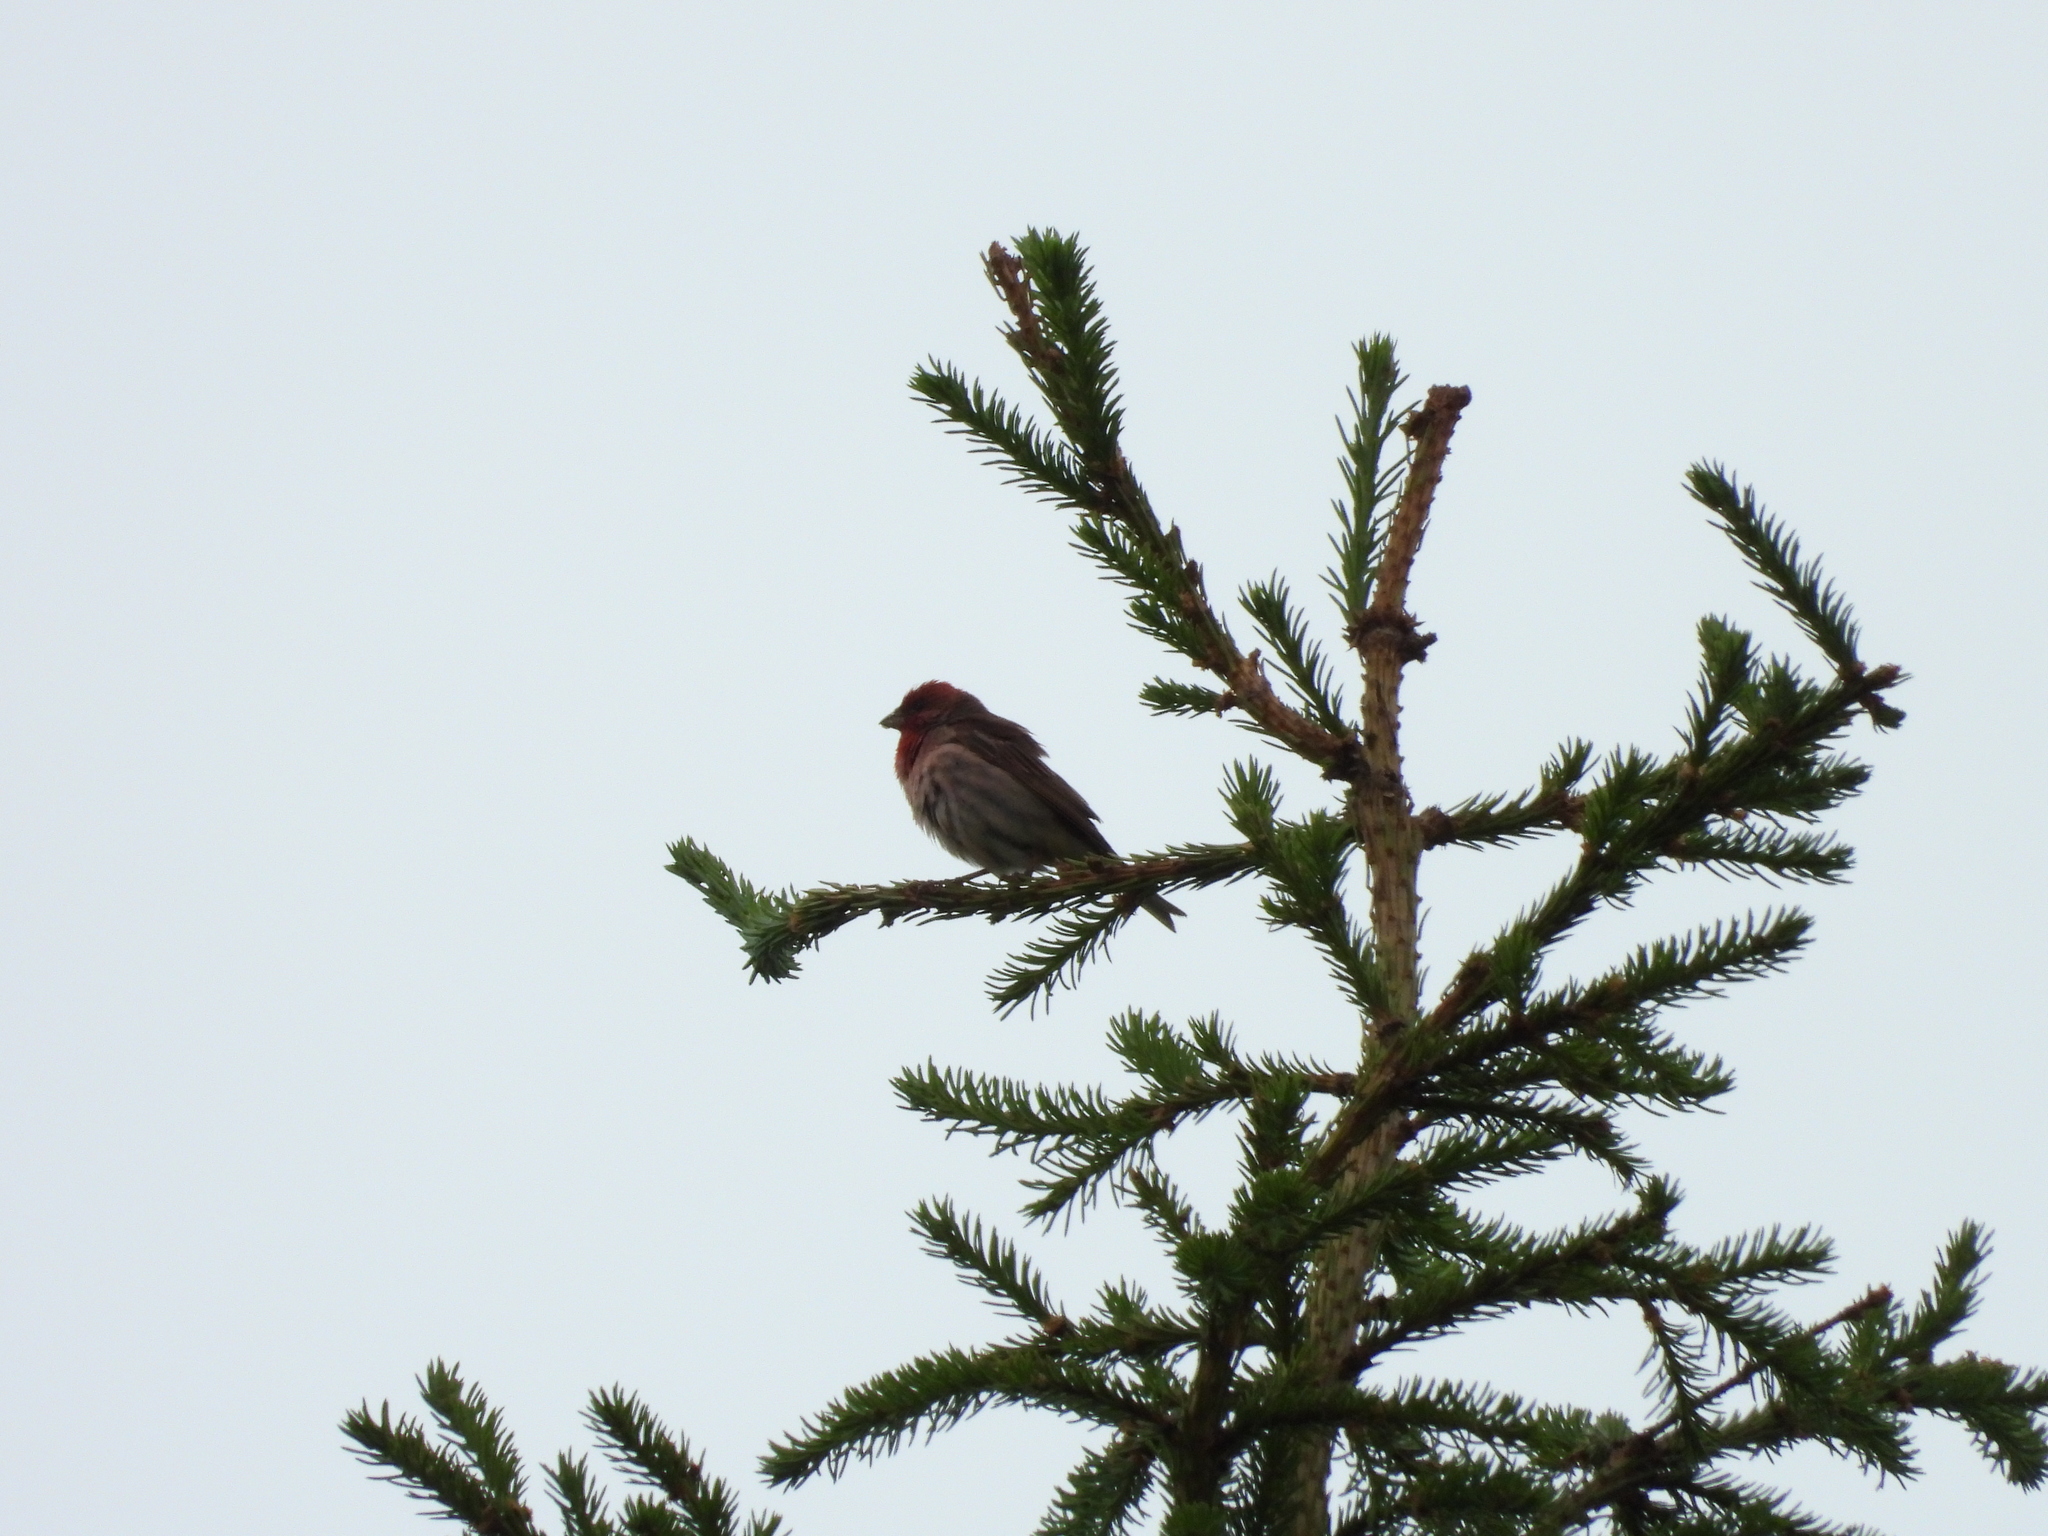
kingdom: Animalia
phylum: Chordata
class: Aves
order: Passeriformes
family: Fringillidae
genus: Carpodacus
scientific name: Carpodacus erythrinus
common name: Common rosefinch
